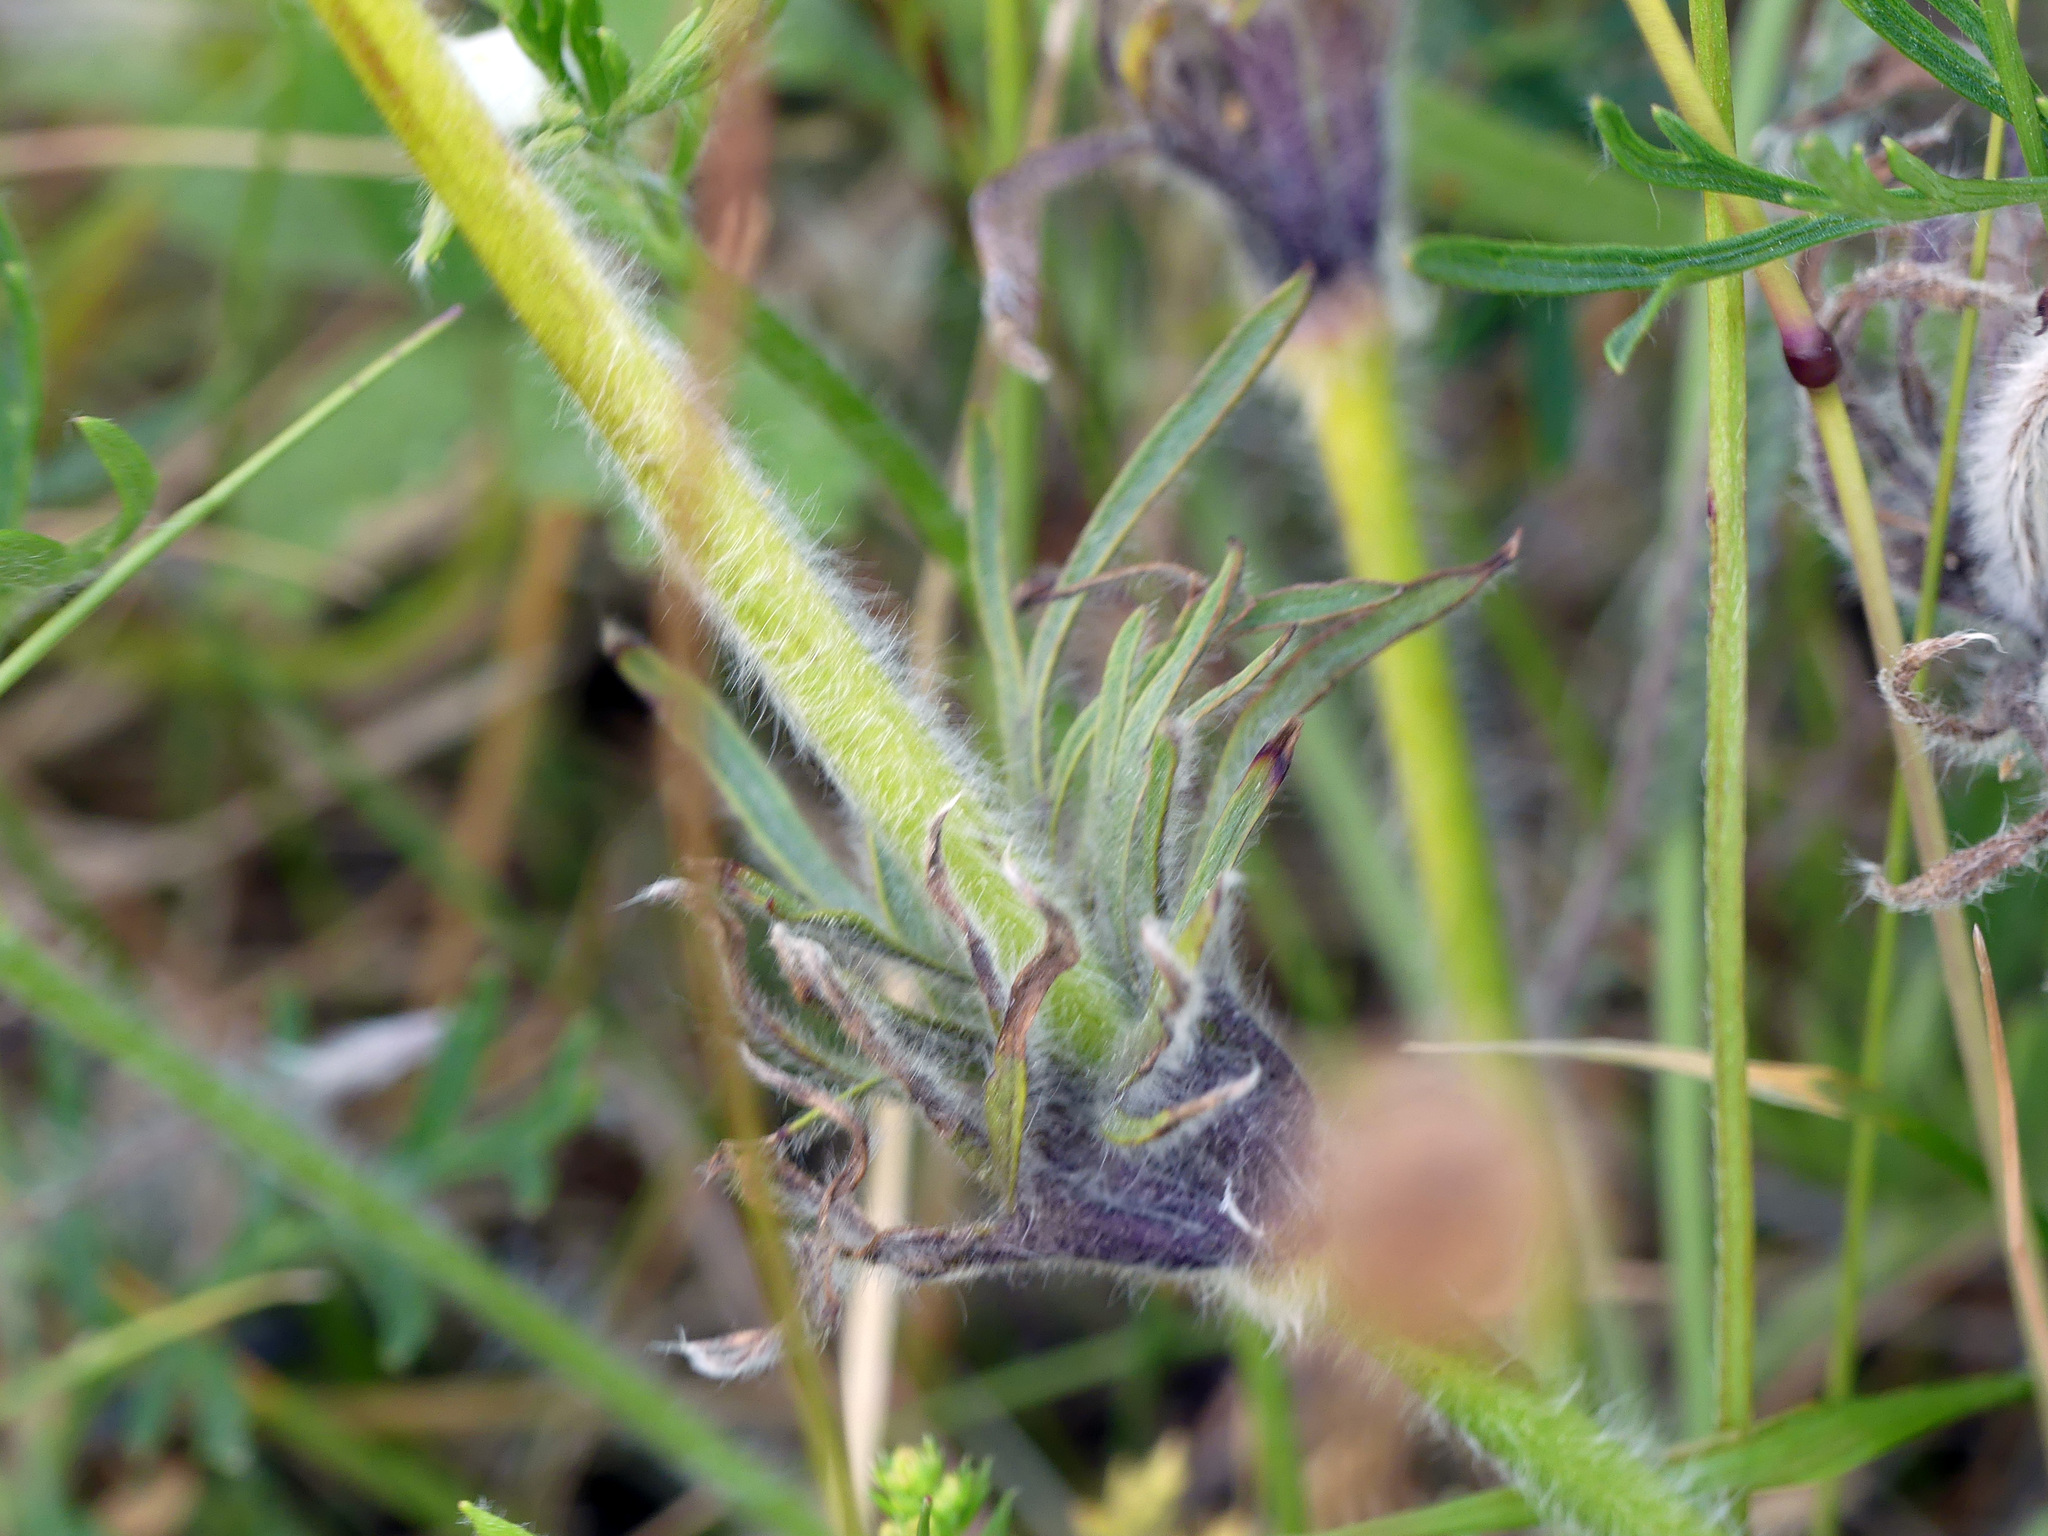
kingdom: Plantae
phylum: Tracheophyta
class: Magnoliopsida
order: Ranunculales
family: Ranunculaceae
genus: Pulsatilla
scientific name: Pulsatilla pratensis
